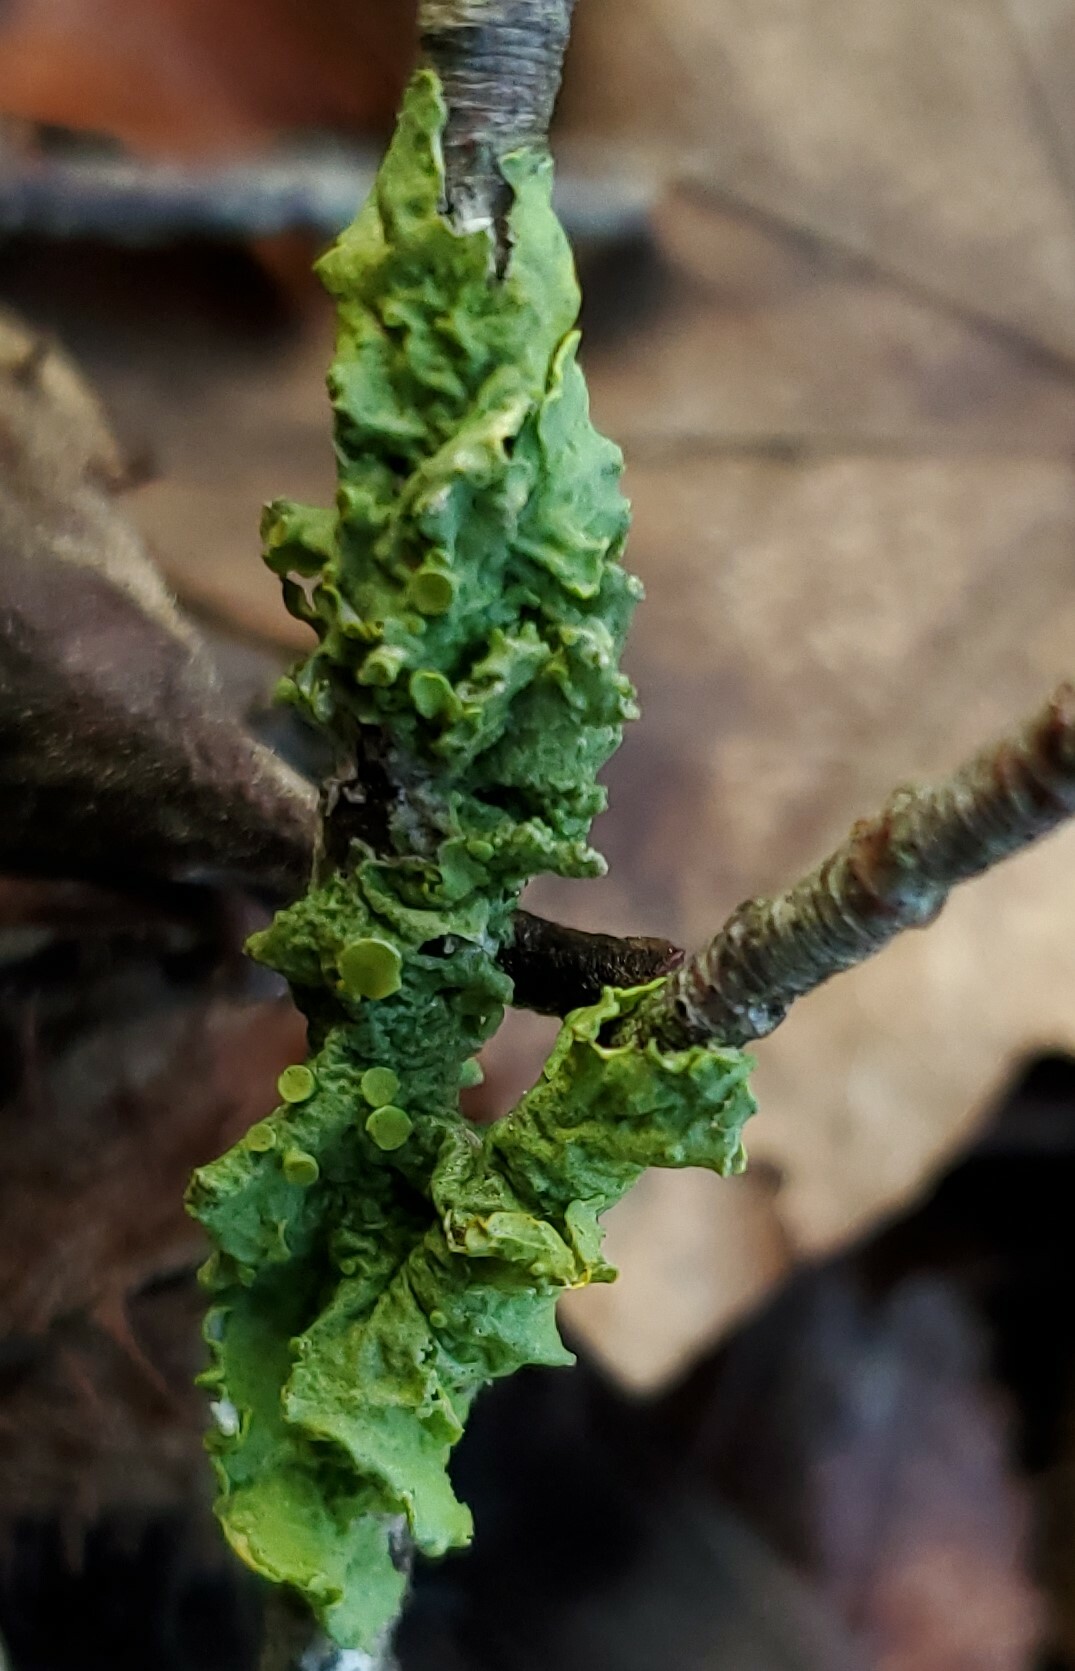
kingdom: Fungi
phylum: Ascomycota
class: Lecanoromycetes
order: Teloschistales
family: Teloschistaceae
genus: Xanthoria
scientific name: Xanthoria parietina
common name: Common orange lichen
